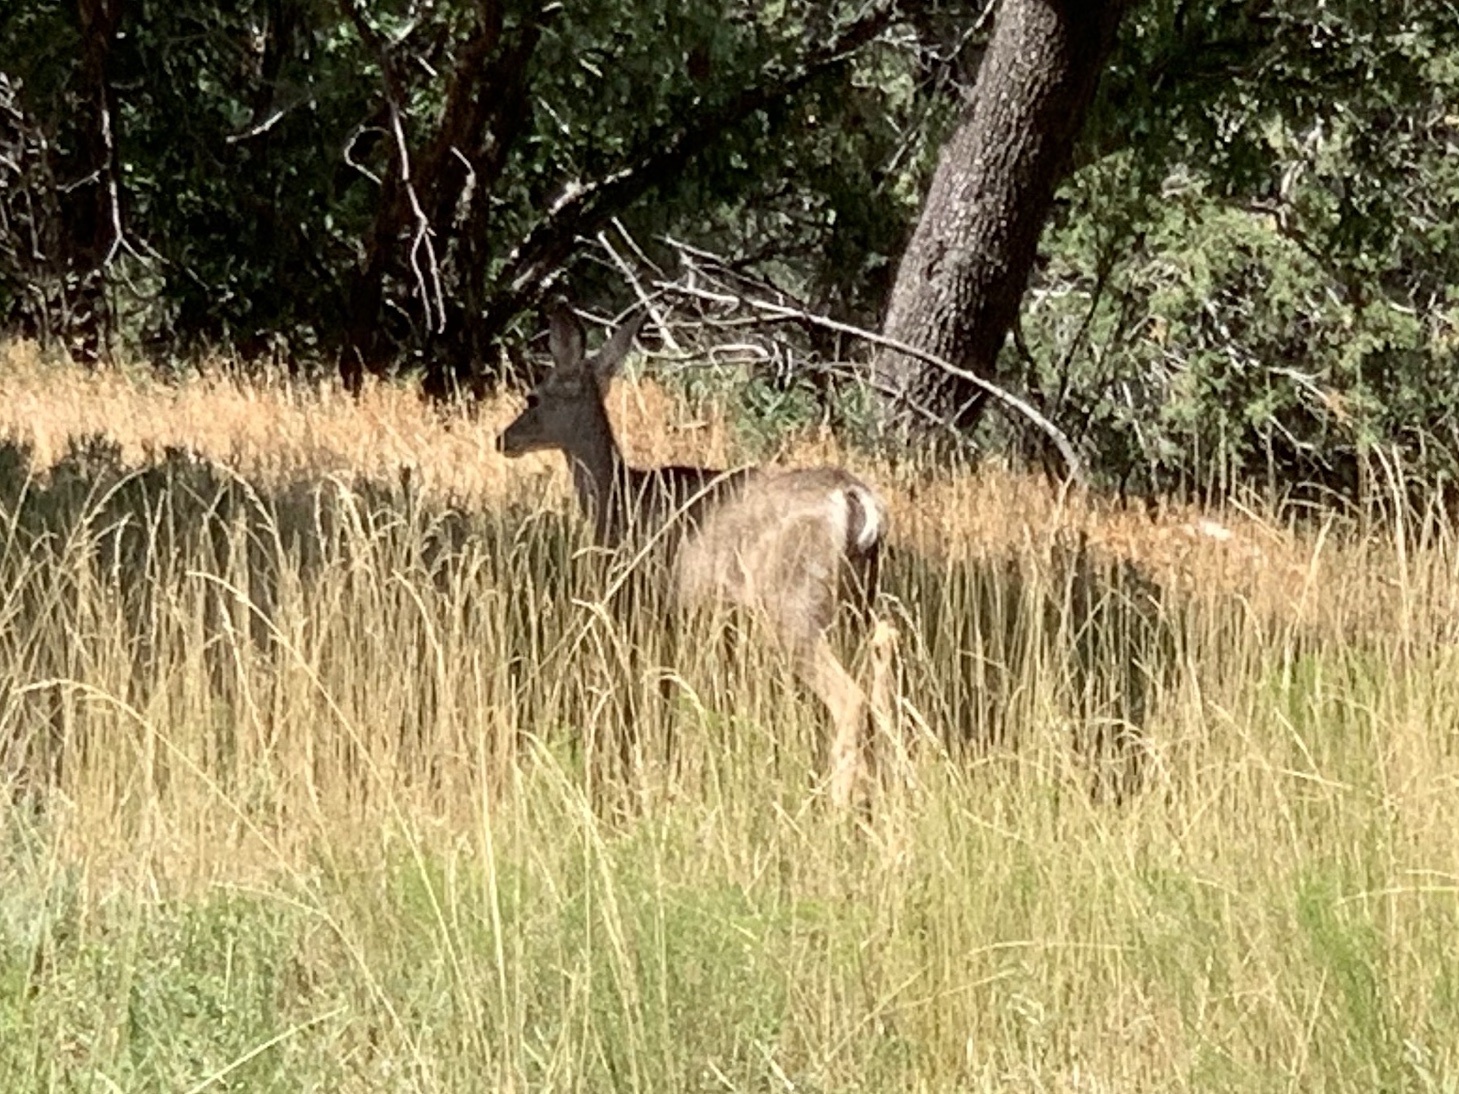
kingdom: Animalia
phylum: Chordata
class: Mammalia
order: Artiodactyla
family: Cervidae
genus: Odocoileus
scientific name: Odocoileus hemionus
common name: Mule deer
